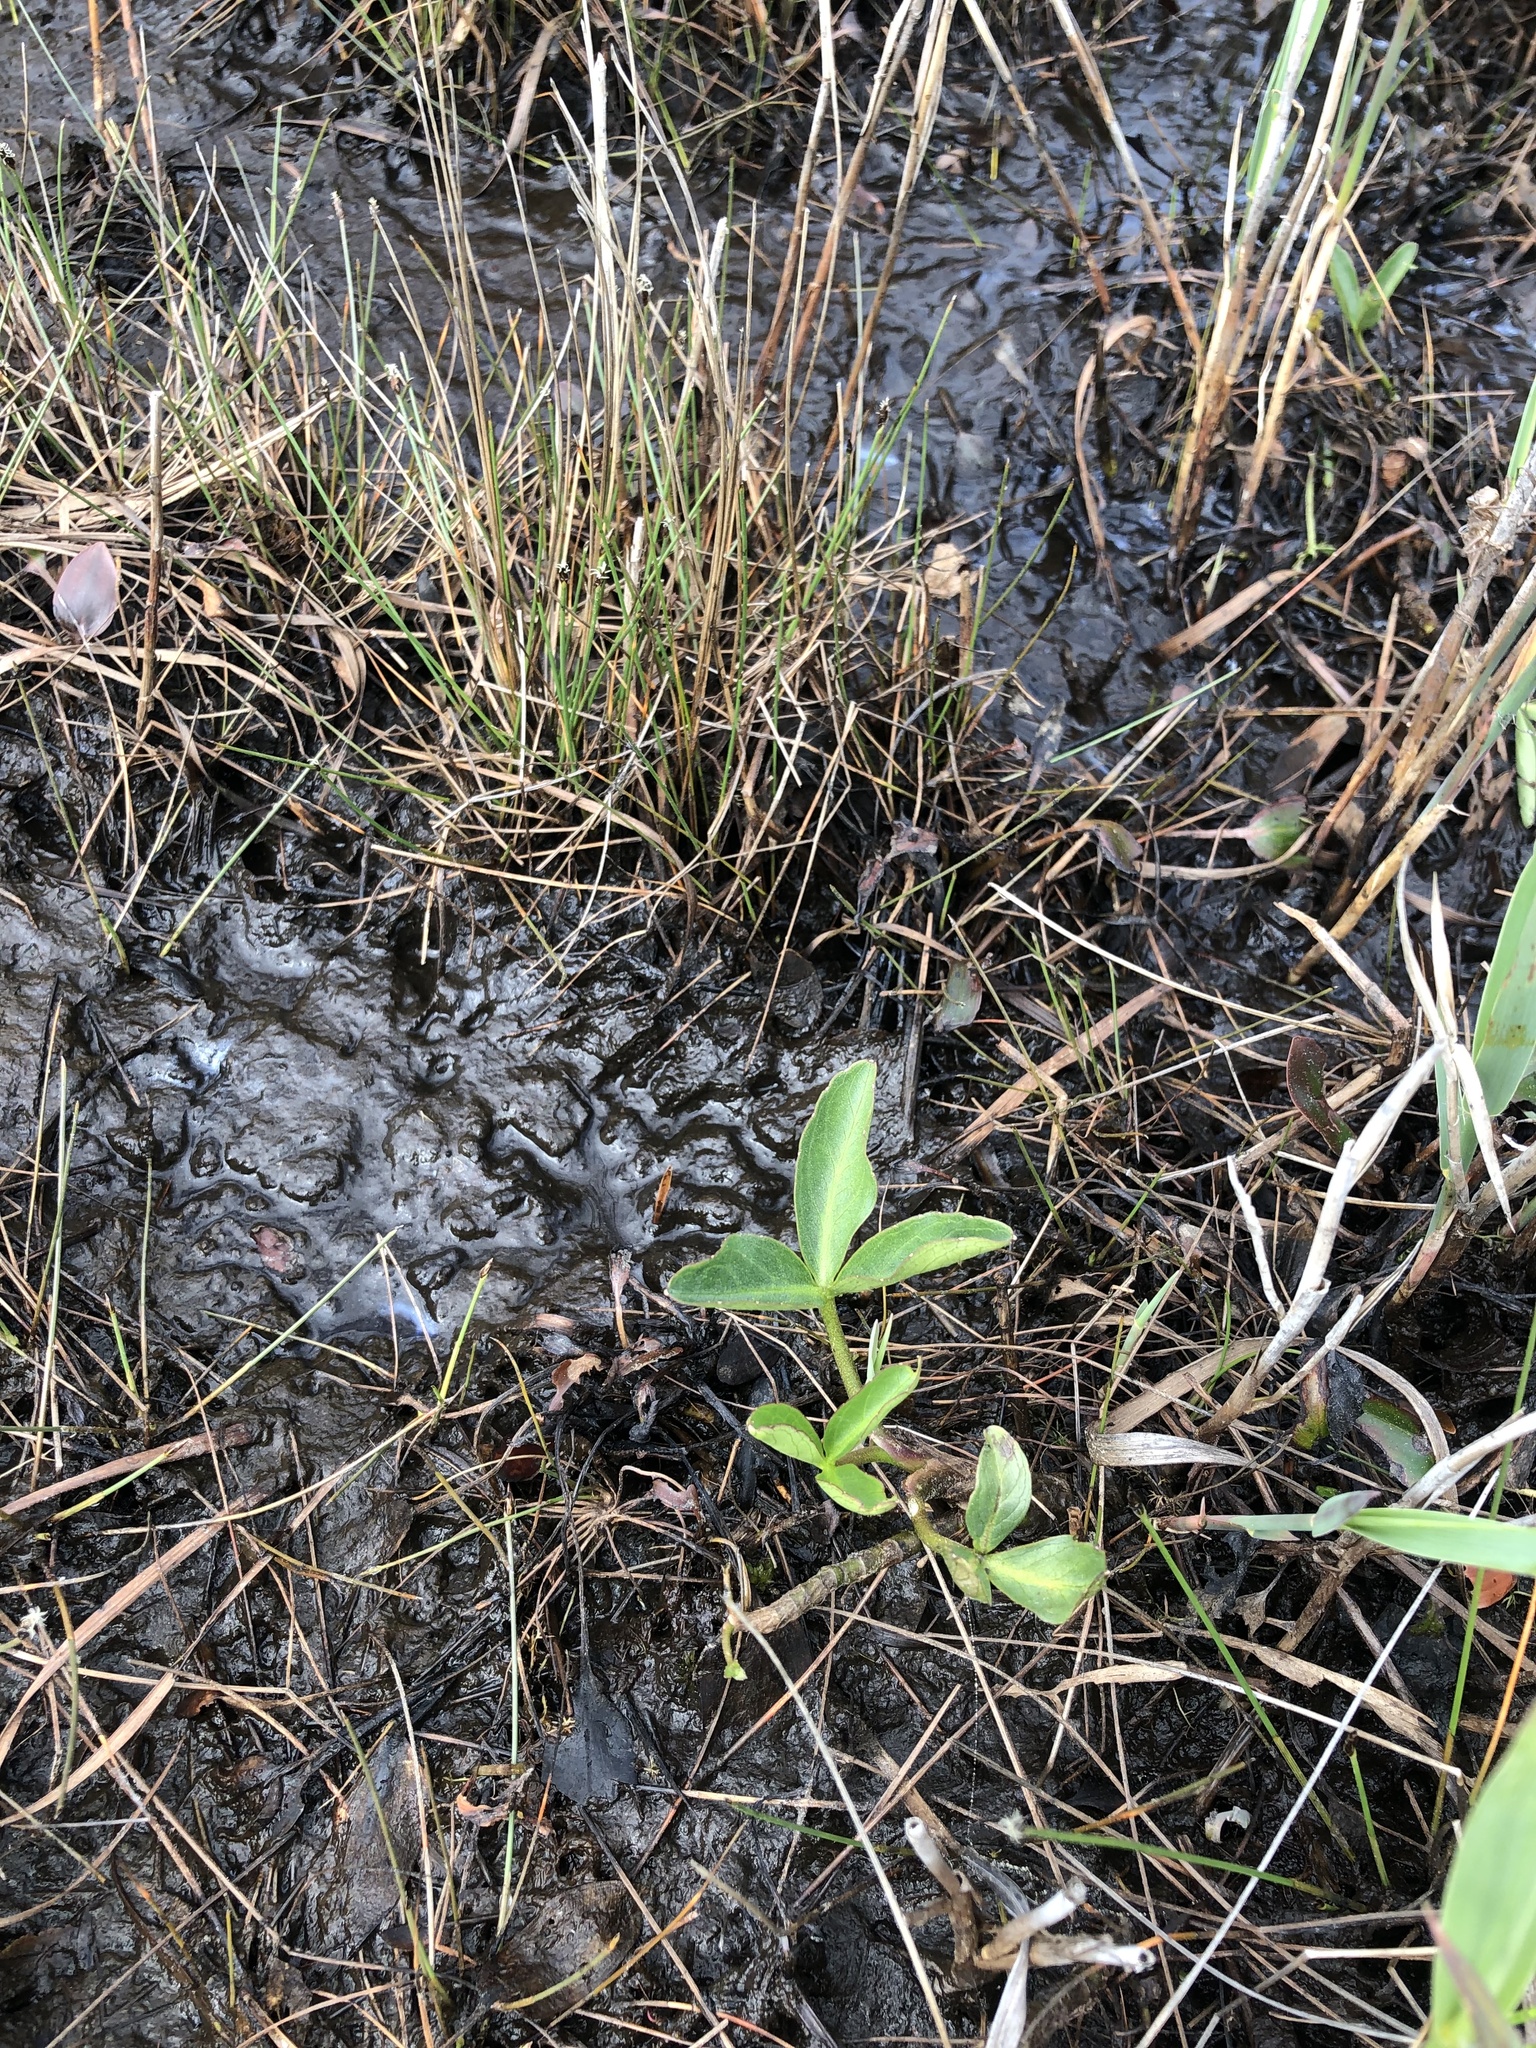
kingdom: Plantae
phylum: Tracheophyta
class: Magnoliopsida
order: Asterales
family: Menyanthaceae
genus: Menyanthes
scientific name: Menyanthes trifoliata
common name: Bogbean
